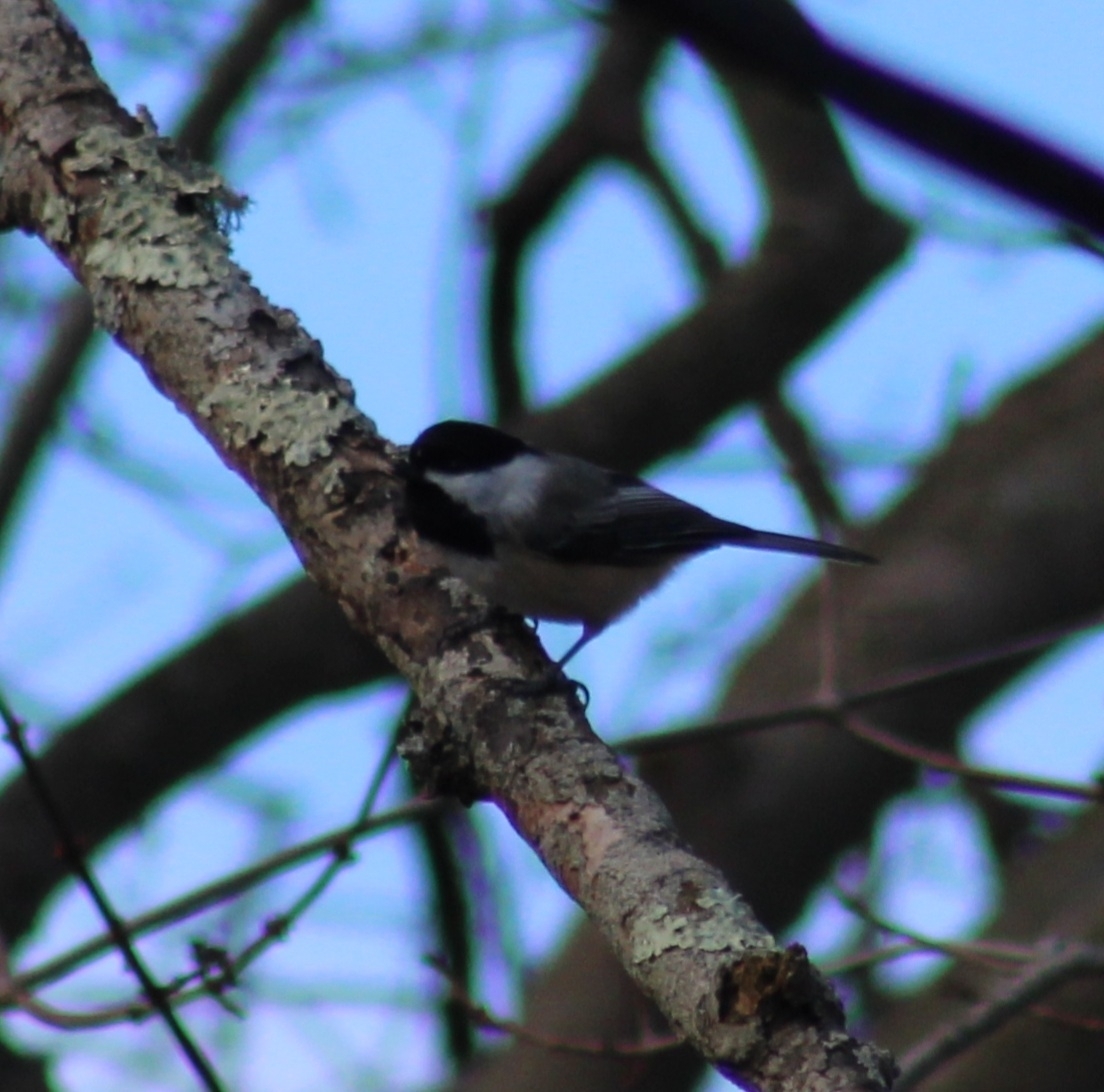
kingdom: Animalia
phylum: Chordata
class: Aves
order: Passeriformes
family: Paridae
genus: Poecile
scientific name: Poecile atricapillus
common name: Black-capped chickadee
